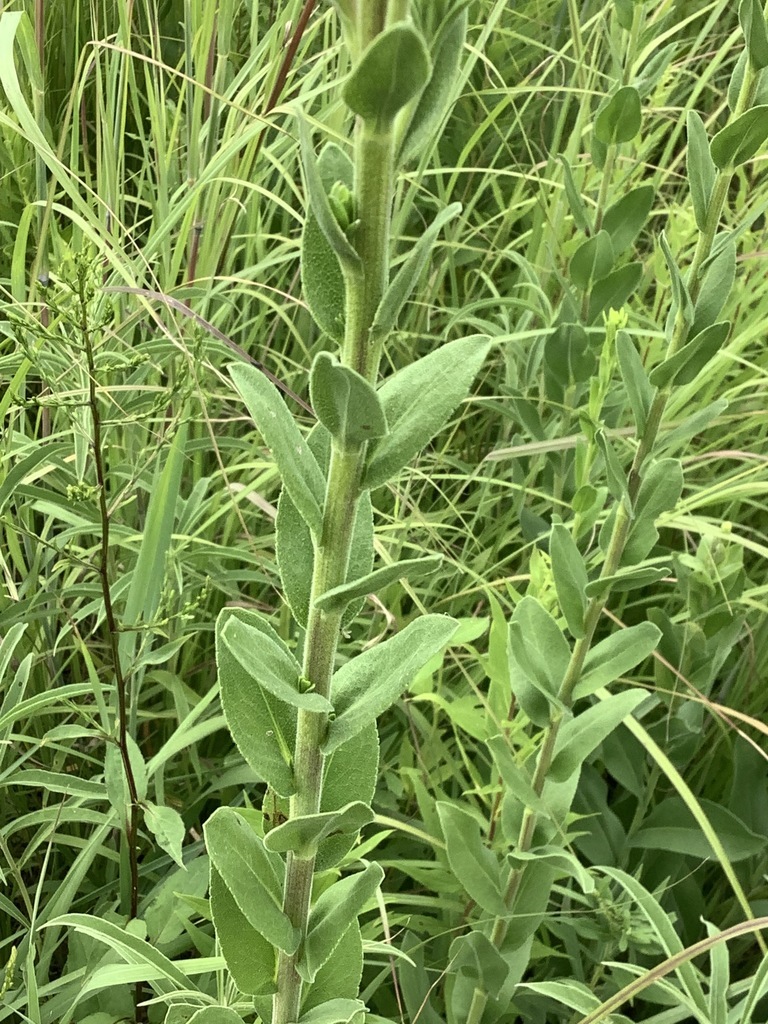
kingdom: Plantae
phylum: Tracheophyta
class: Magnoliopsida
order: Asterales
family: Asteraceae
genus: Solidago
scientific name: Solidago rigida
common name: Rigid goldenrod
